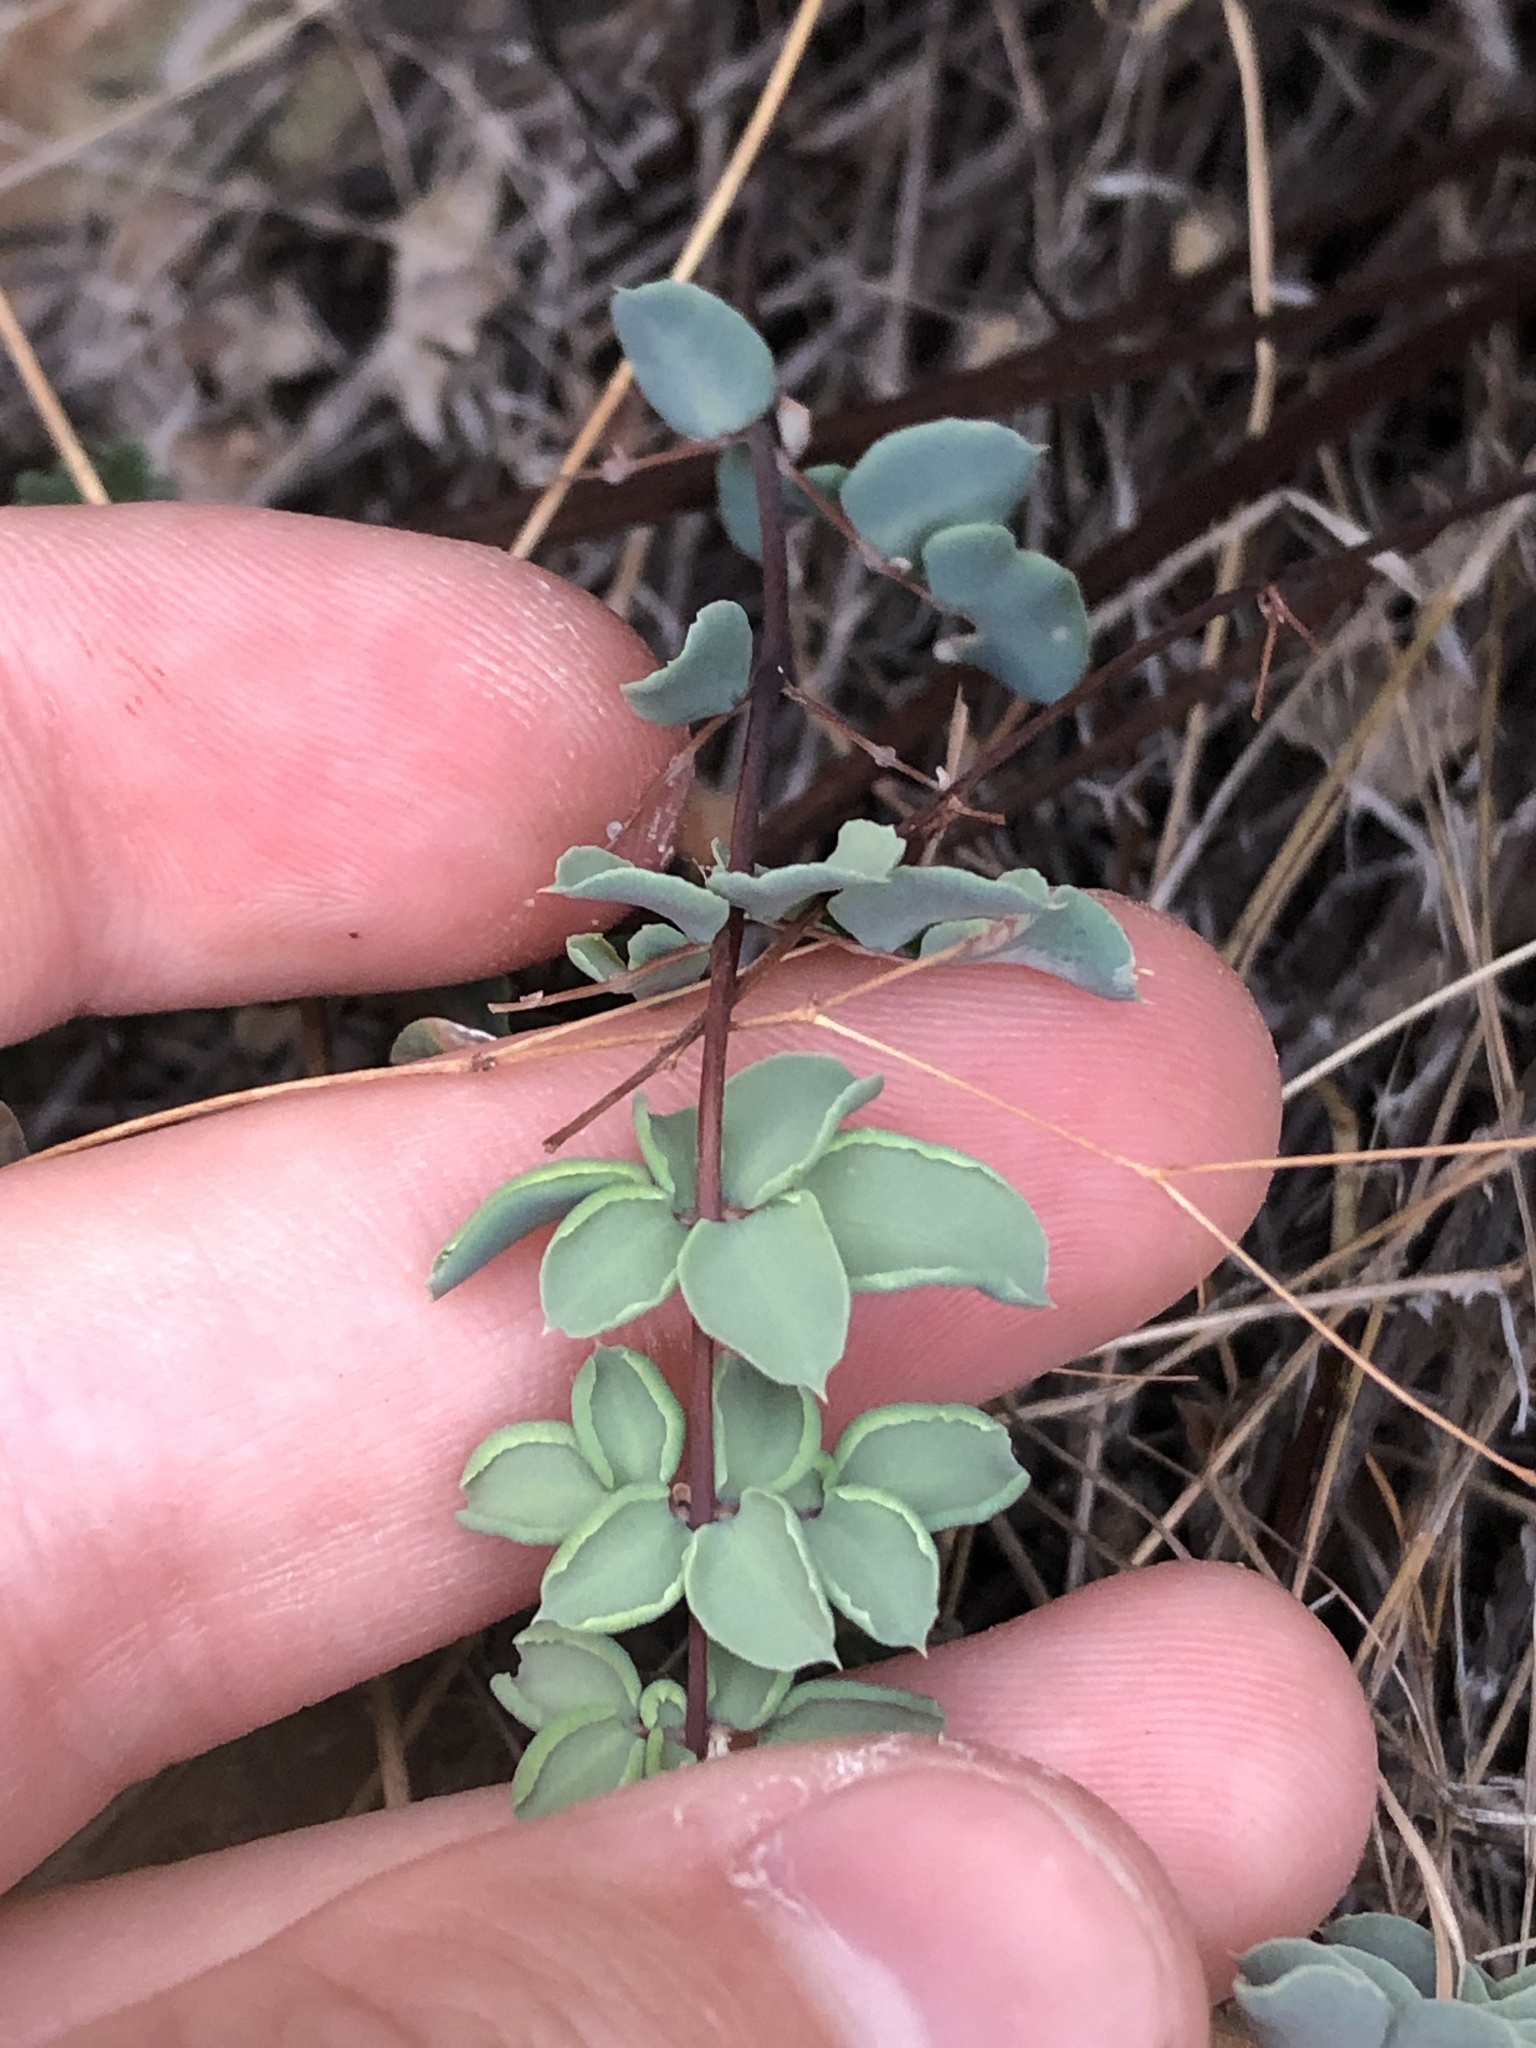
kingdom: Plantae
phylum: Tracheophyta
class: Polypodiopsida
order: Polypodiales
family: Pteridaceae
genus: Pellaea
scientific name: Pellaea truncata
